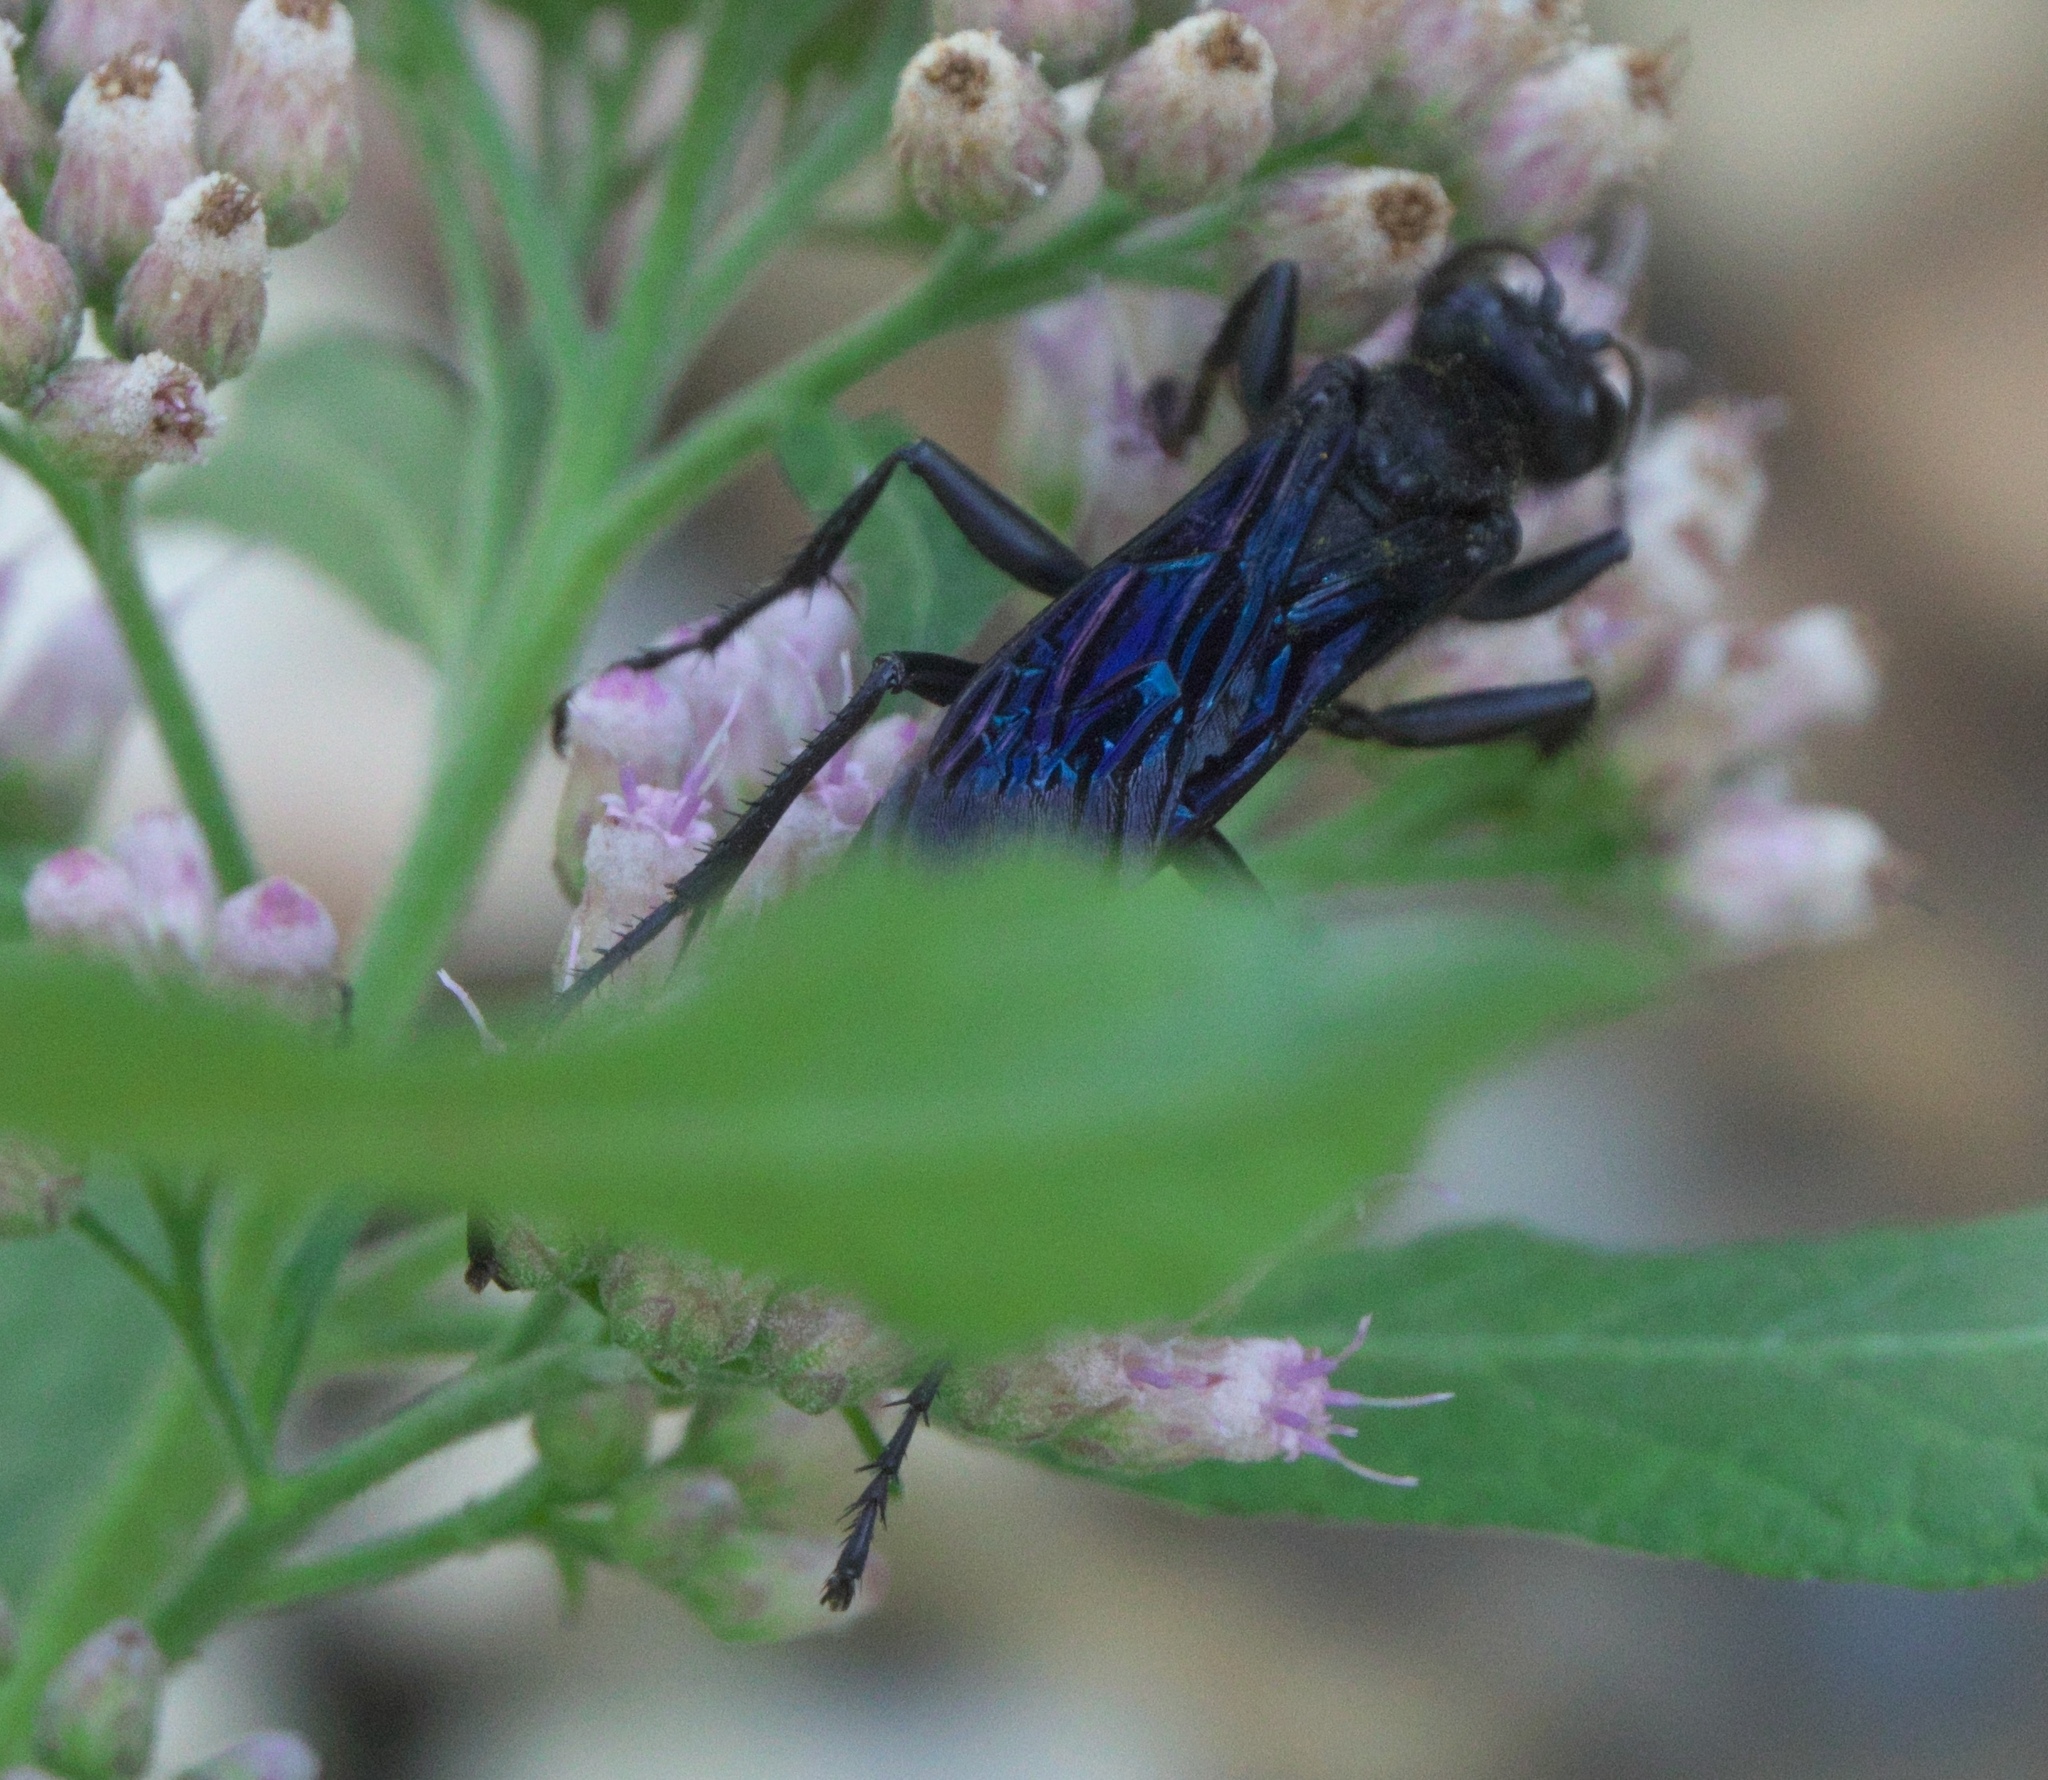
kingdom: Animalia
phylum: Arthropoda
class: Insecta
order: Hymenoptera
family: Sphecidae
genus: Sphex
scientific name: Sphex pensylvanicus
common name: Great black digger wasp
